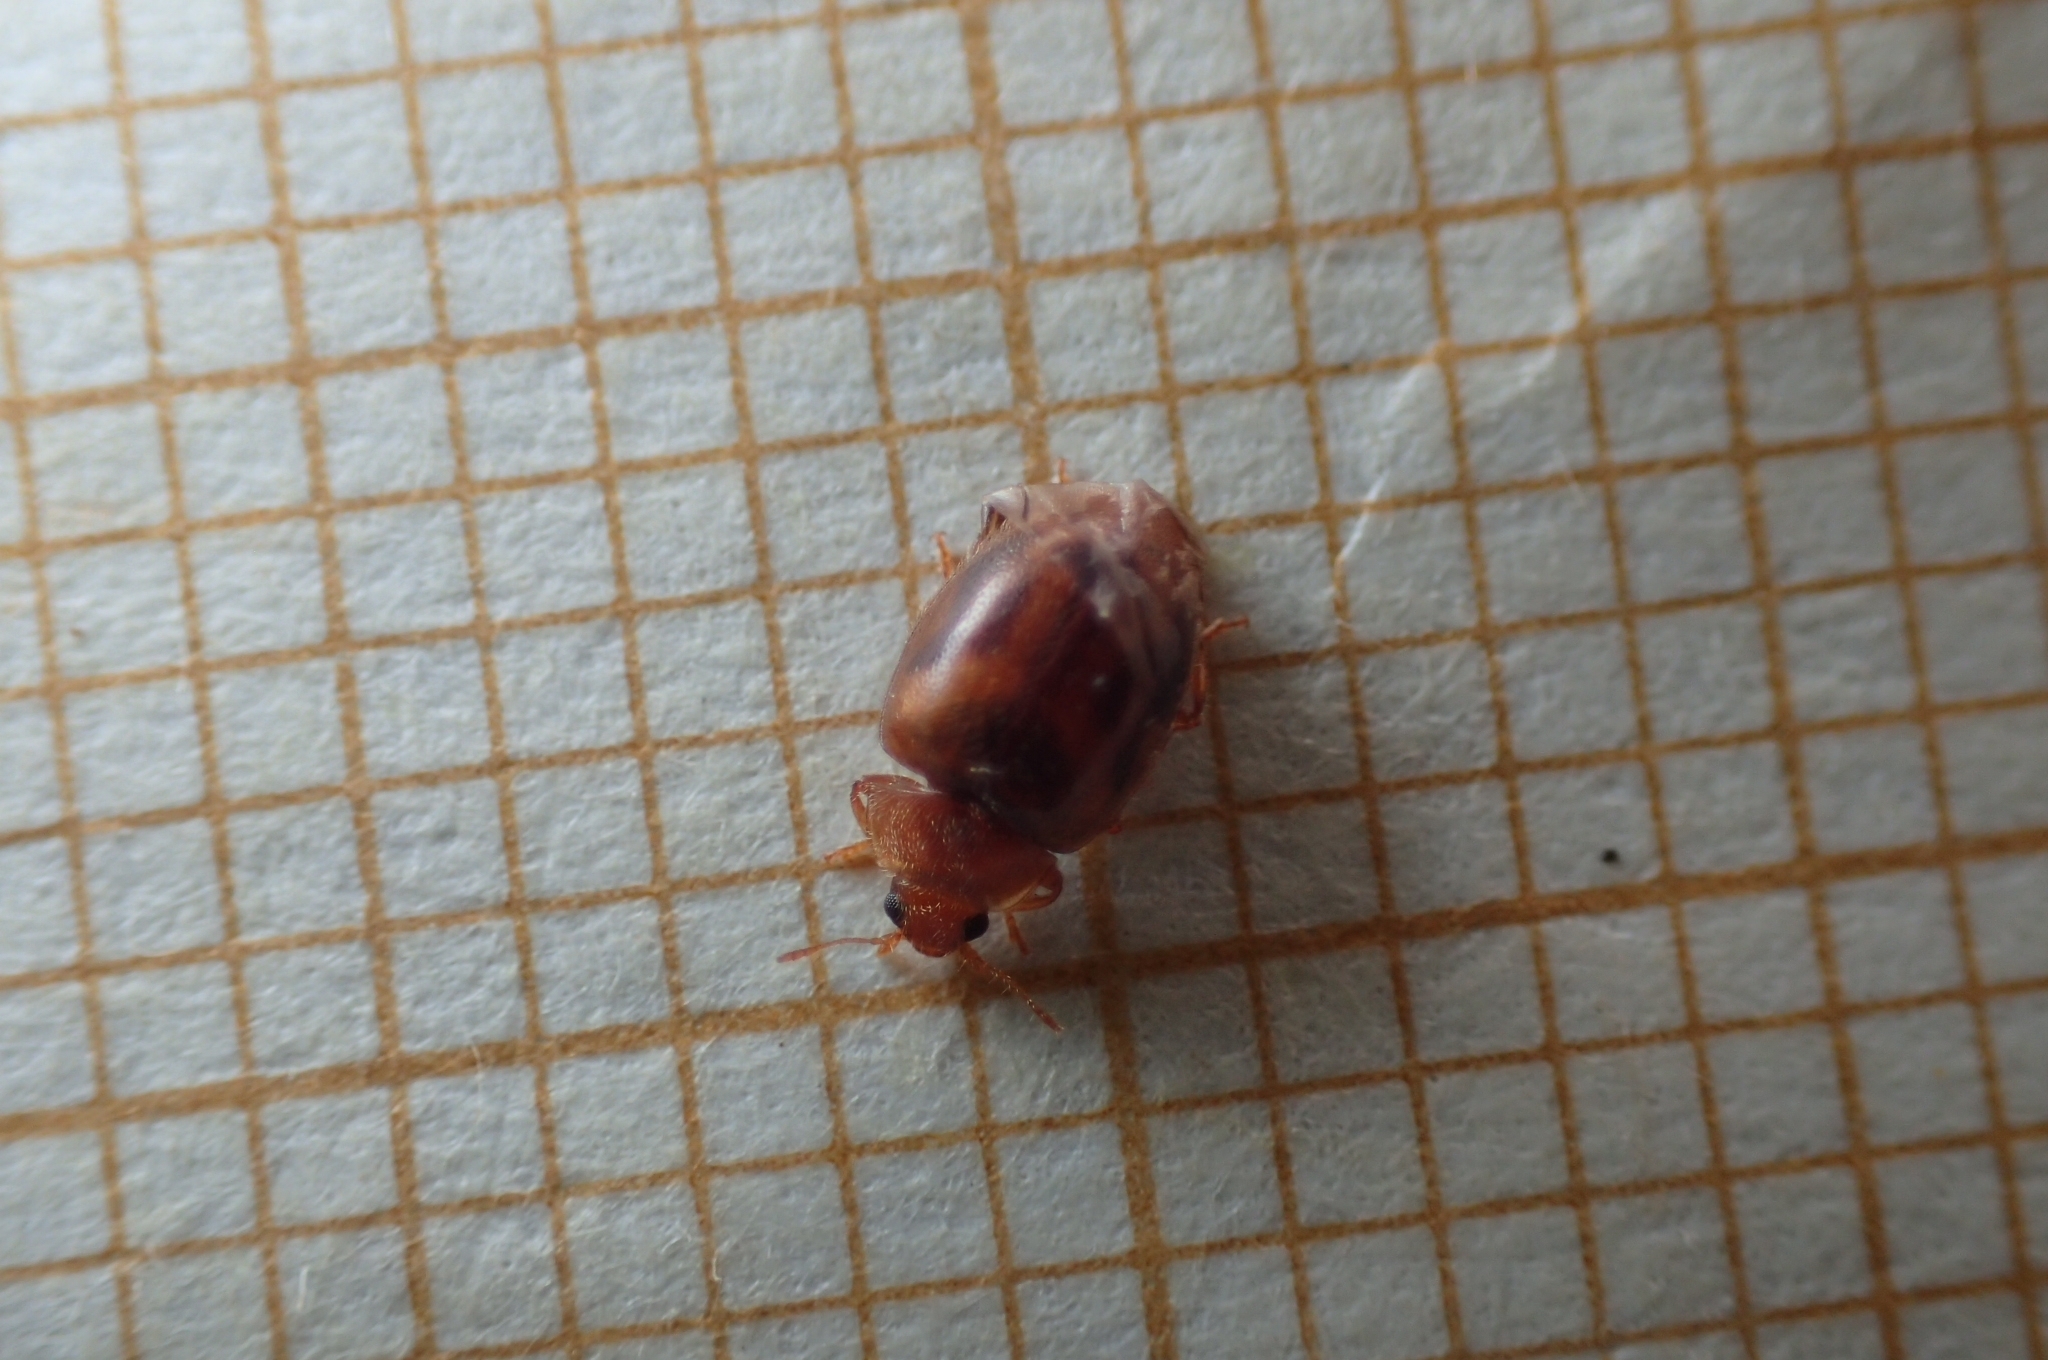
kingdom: Animalia
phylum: Arthropoda
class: Insecta
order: Coleoptera
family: Coccinellidae
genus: Rhyzobius
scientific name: Rhyzobius chrysomeloides
